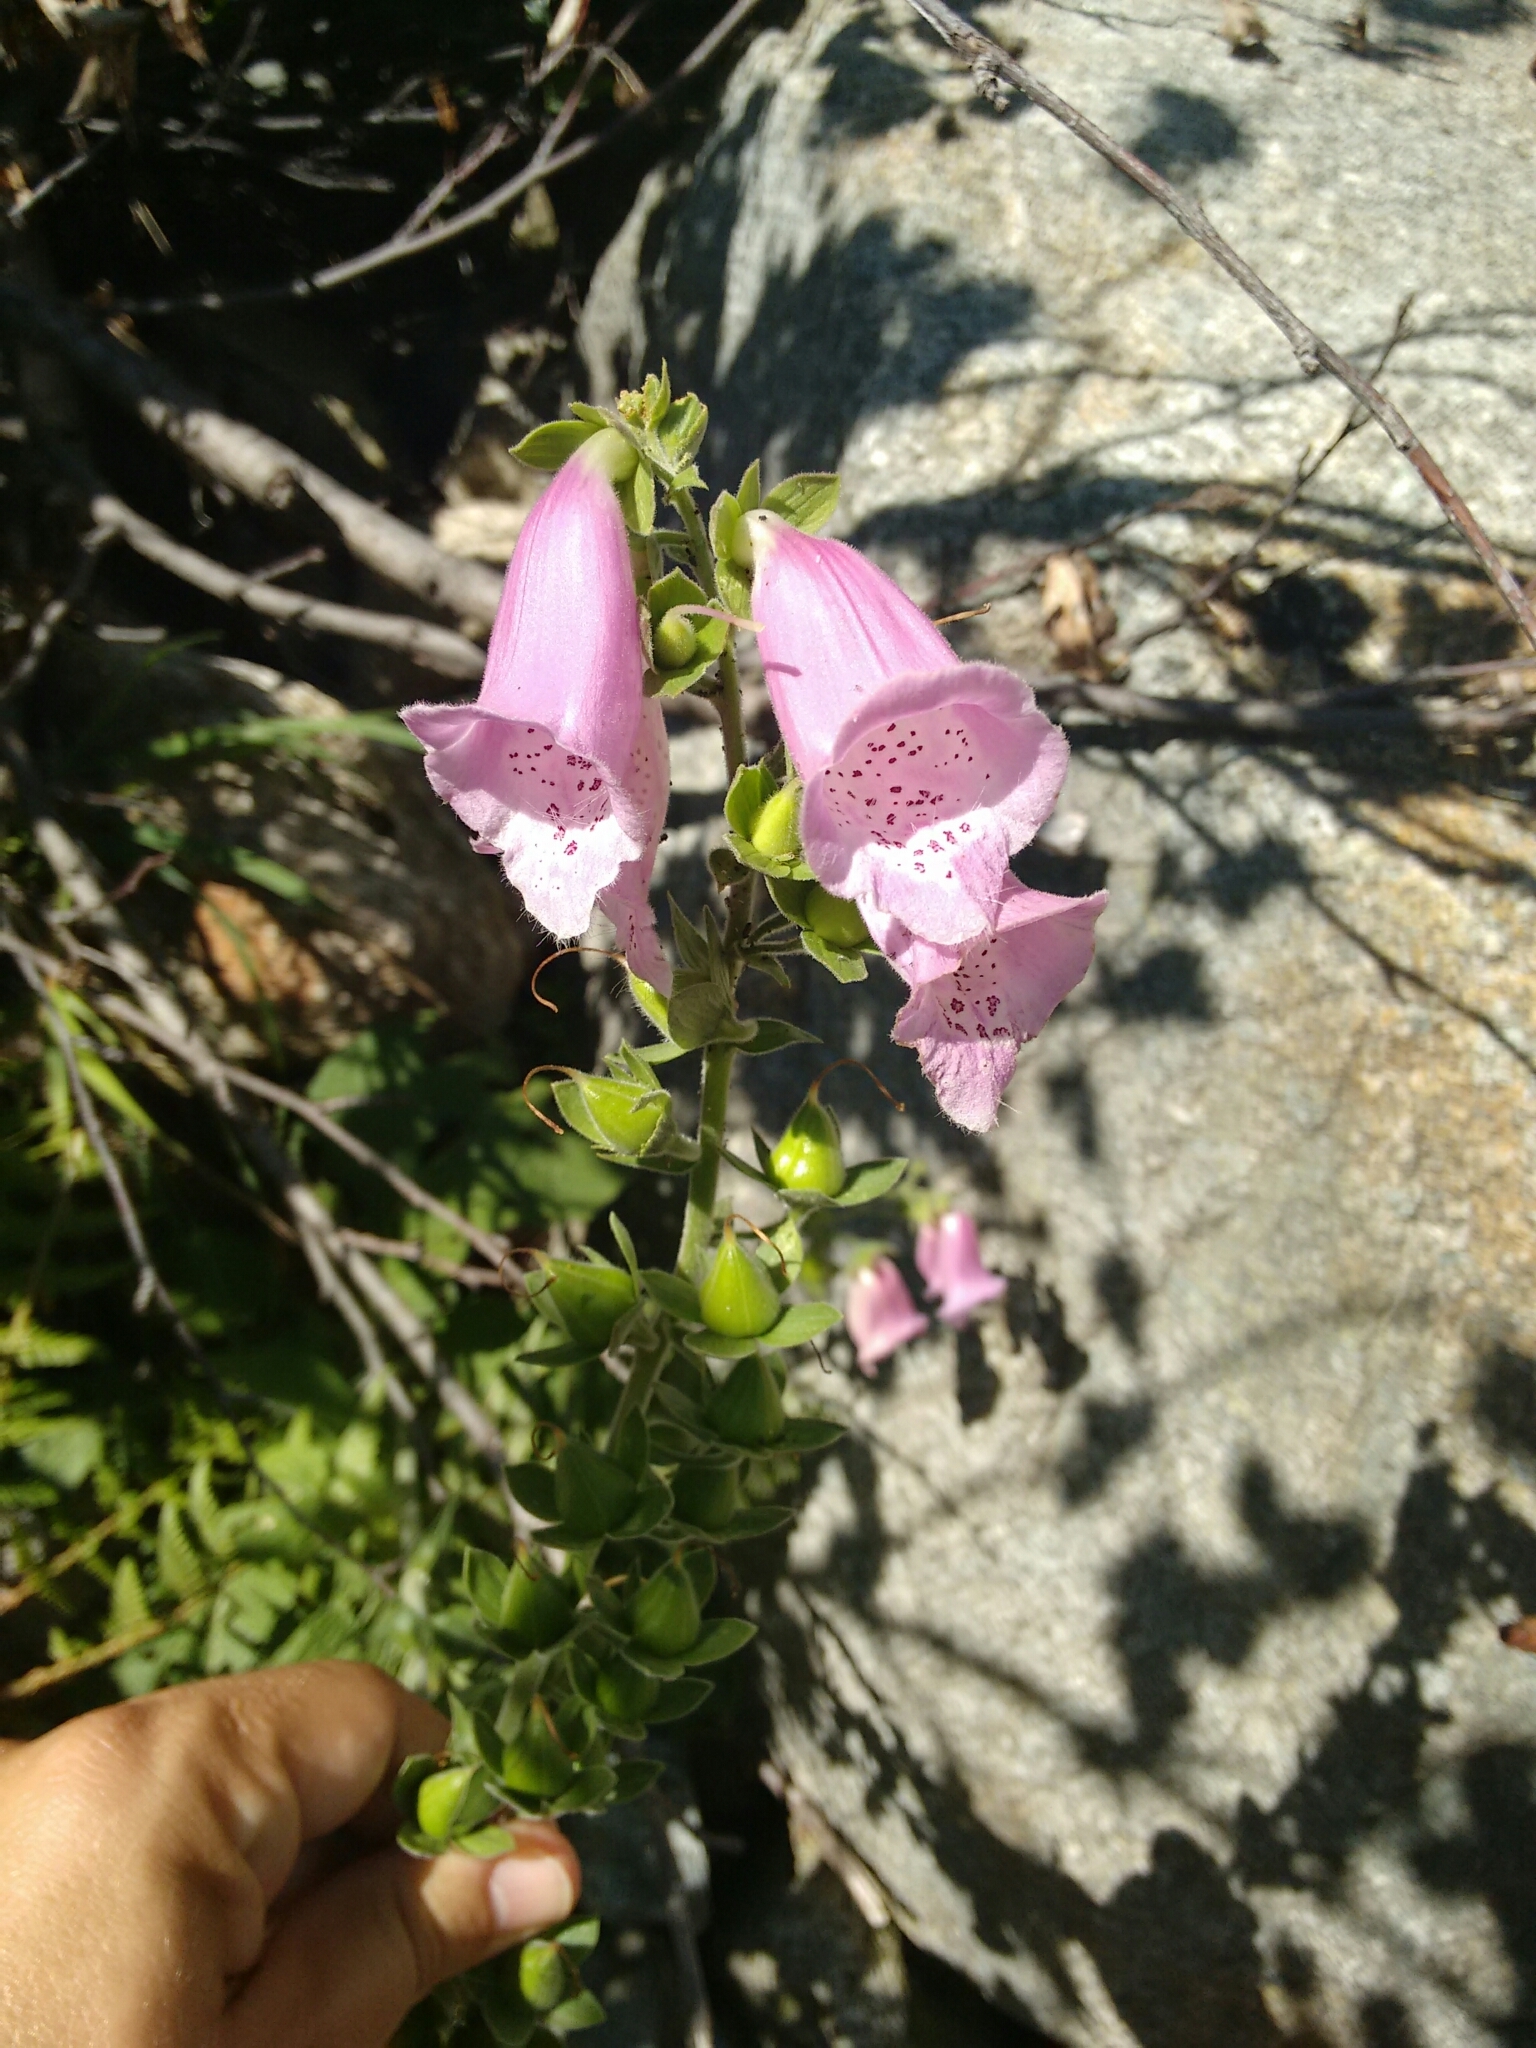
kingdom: Plantae
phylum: Tracheophyta
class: Magnoliopsida
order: Lamiales
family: Plantaginaceae
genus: Digitalis
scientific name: Digitalis purpurea
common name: Foxglove
